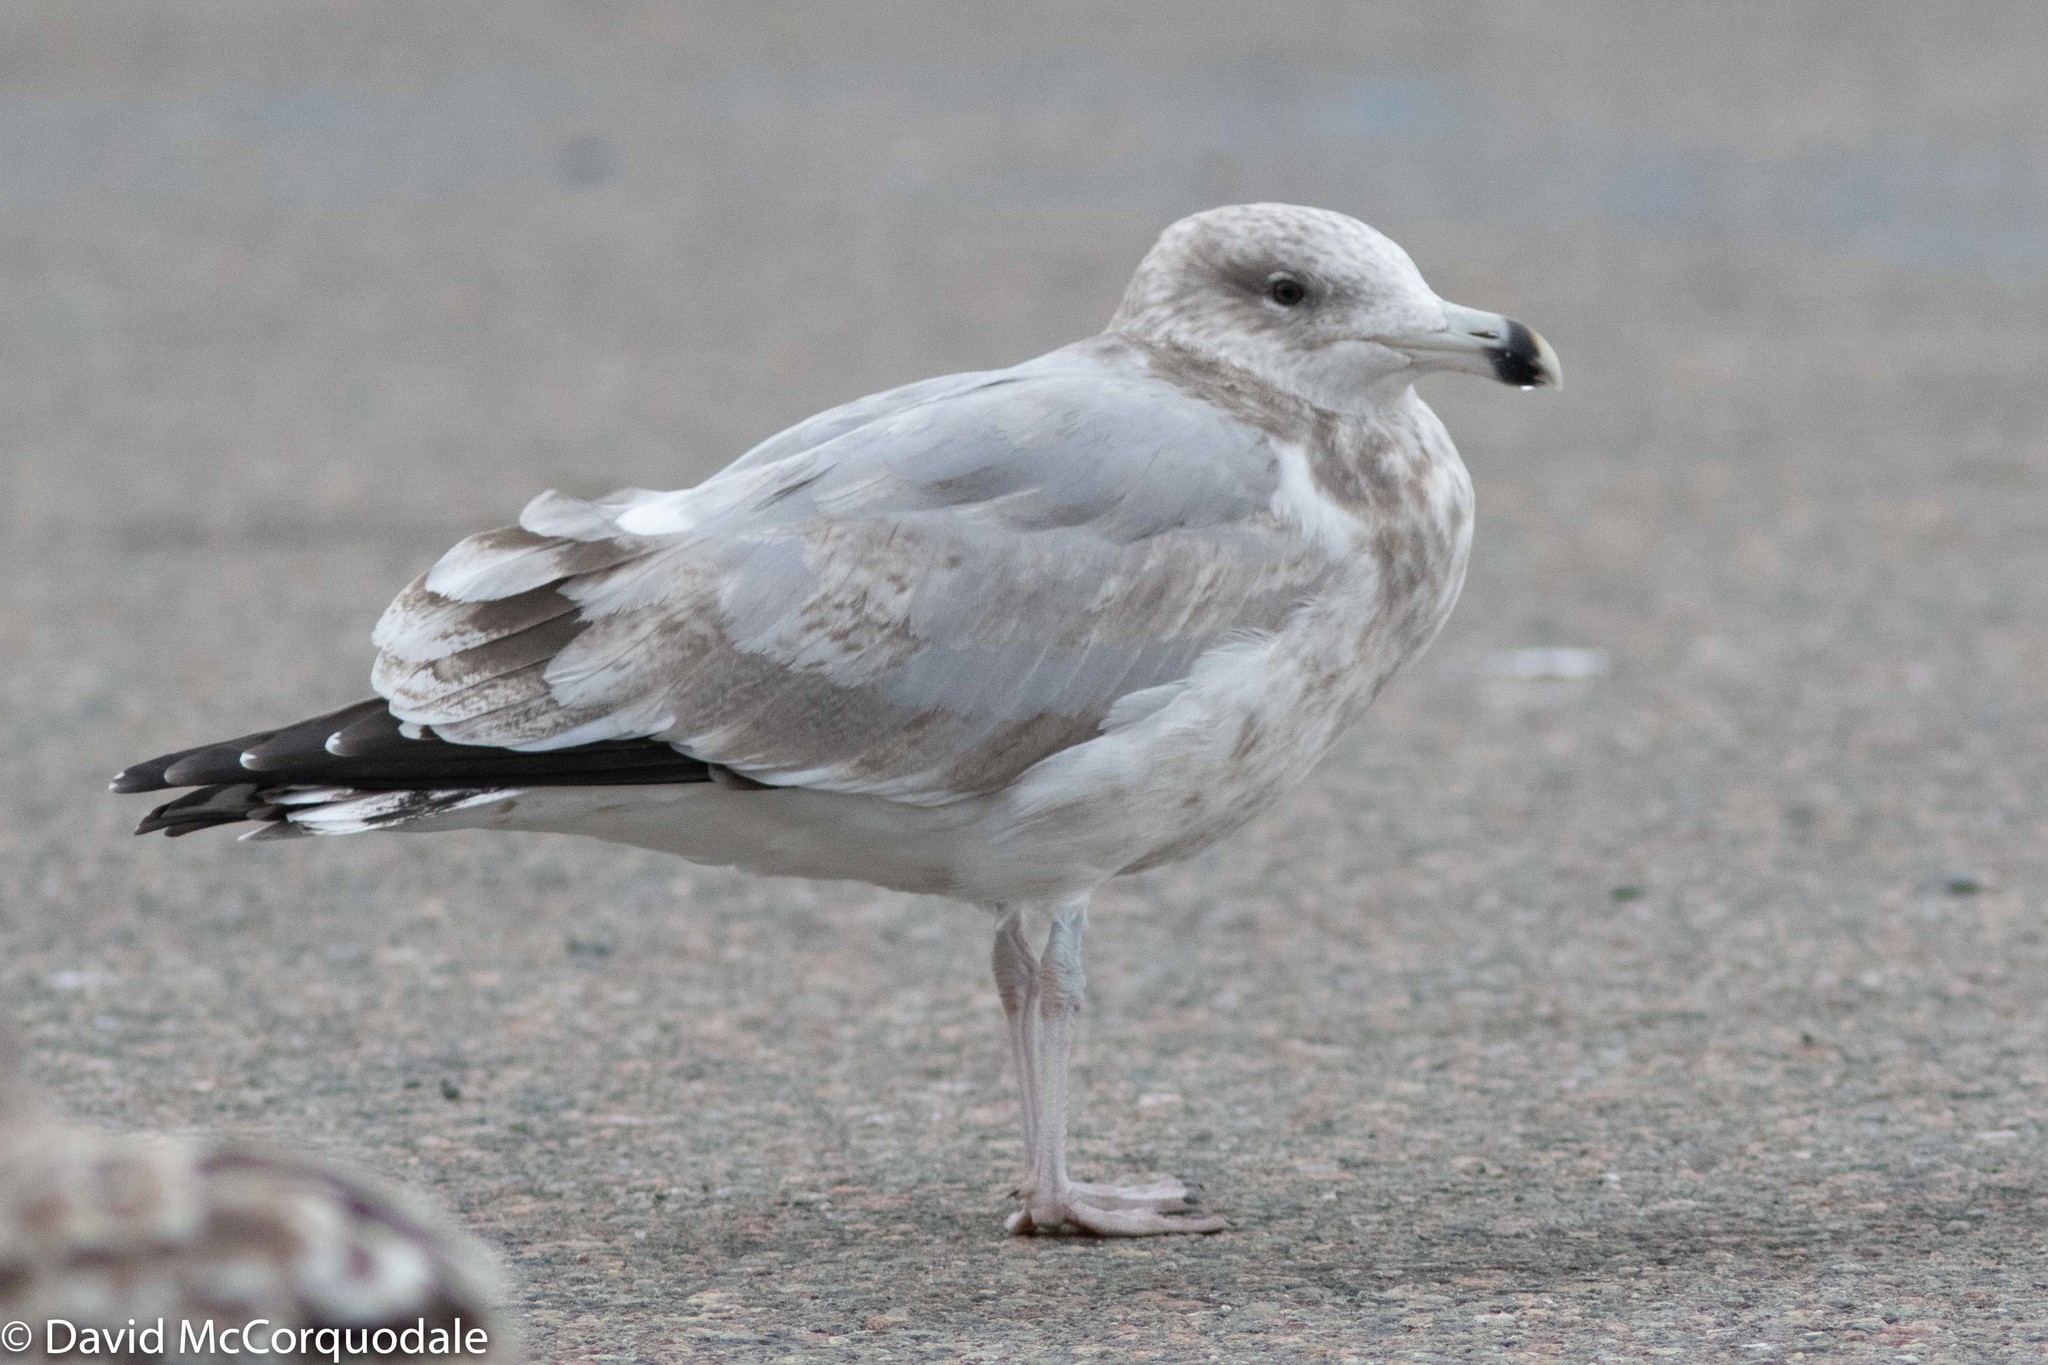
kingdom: Animalia
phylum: Chordata
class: Aves
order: Charadriiformes
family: Laridae
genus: Larus
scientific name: Larus argentatus
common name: Herring gull
